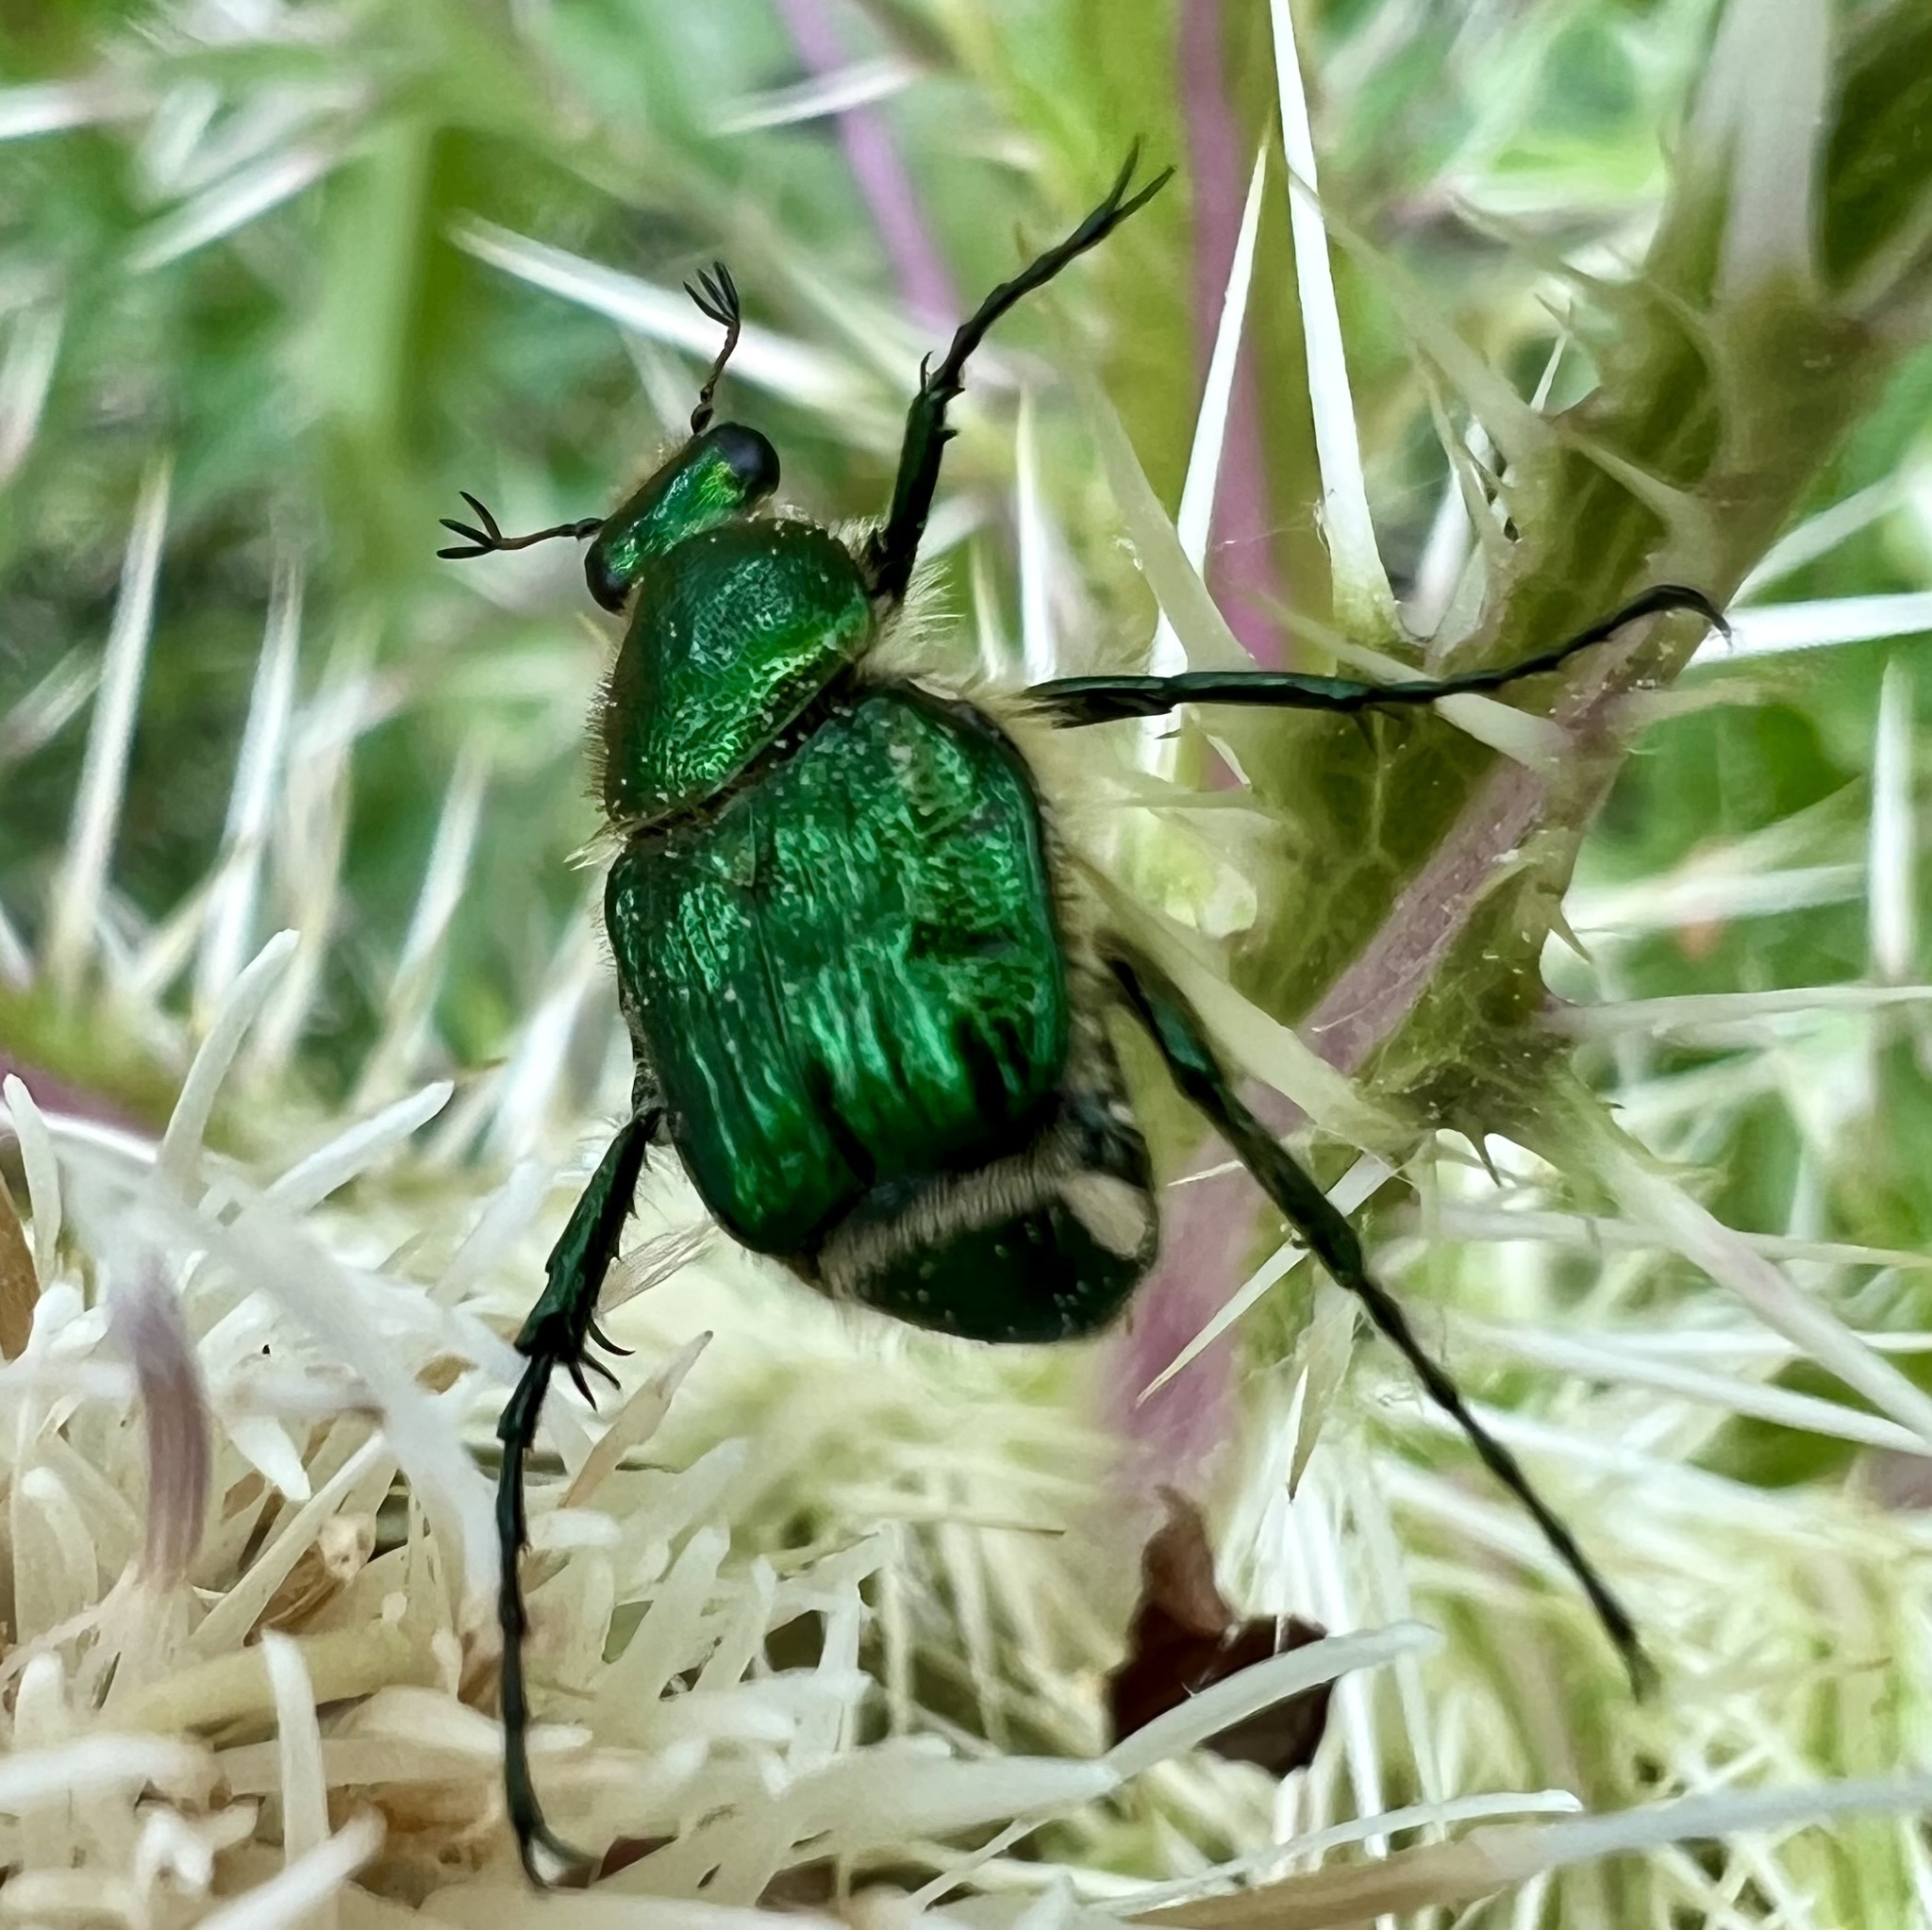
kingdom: Animalia
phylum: Arthropoda
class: Insecta
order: Coleoptera
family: Scarabaeidae
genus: Trichiotinus
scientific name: Trichiotinus lunulatus
